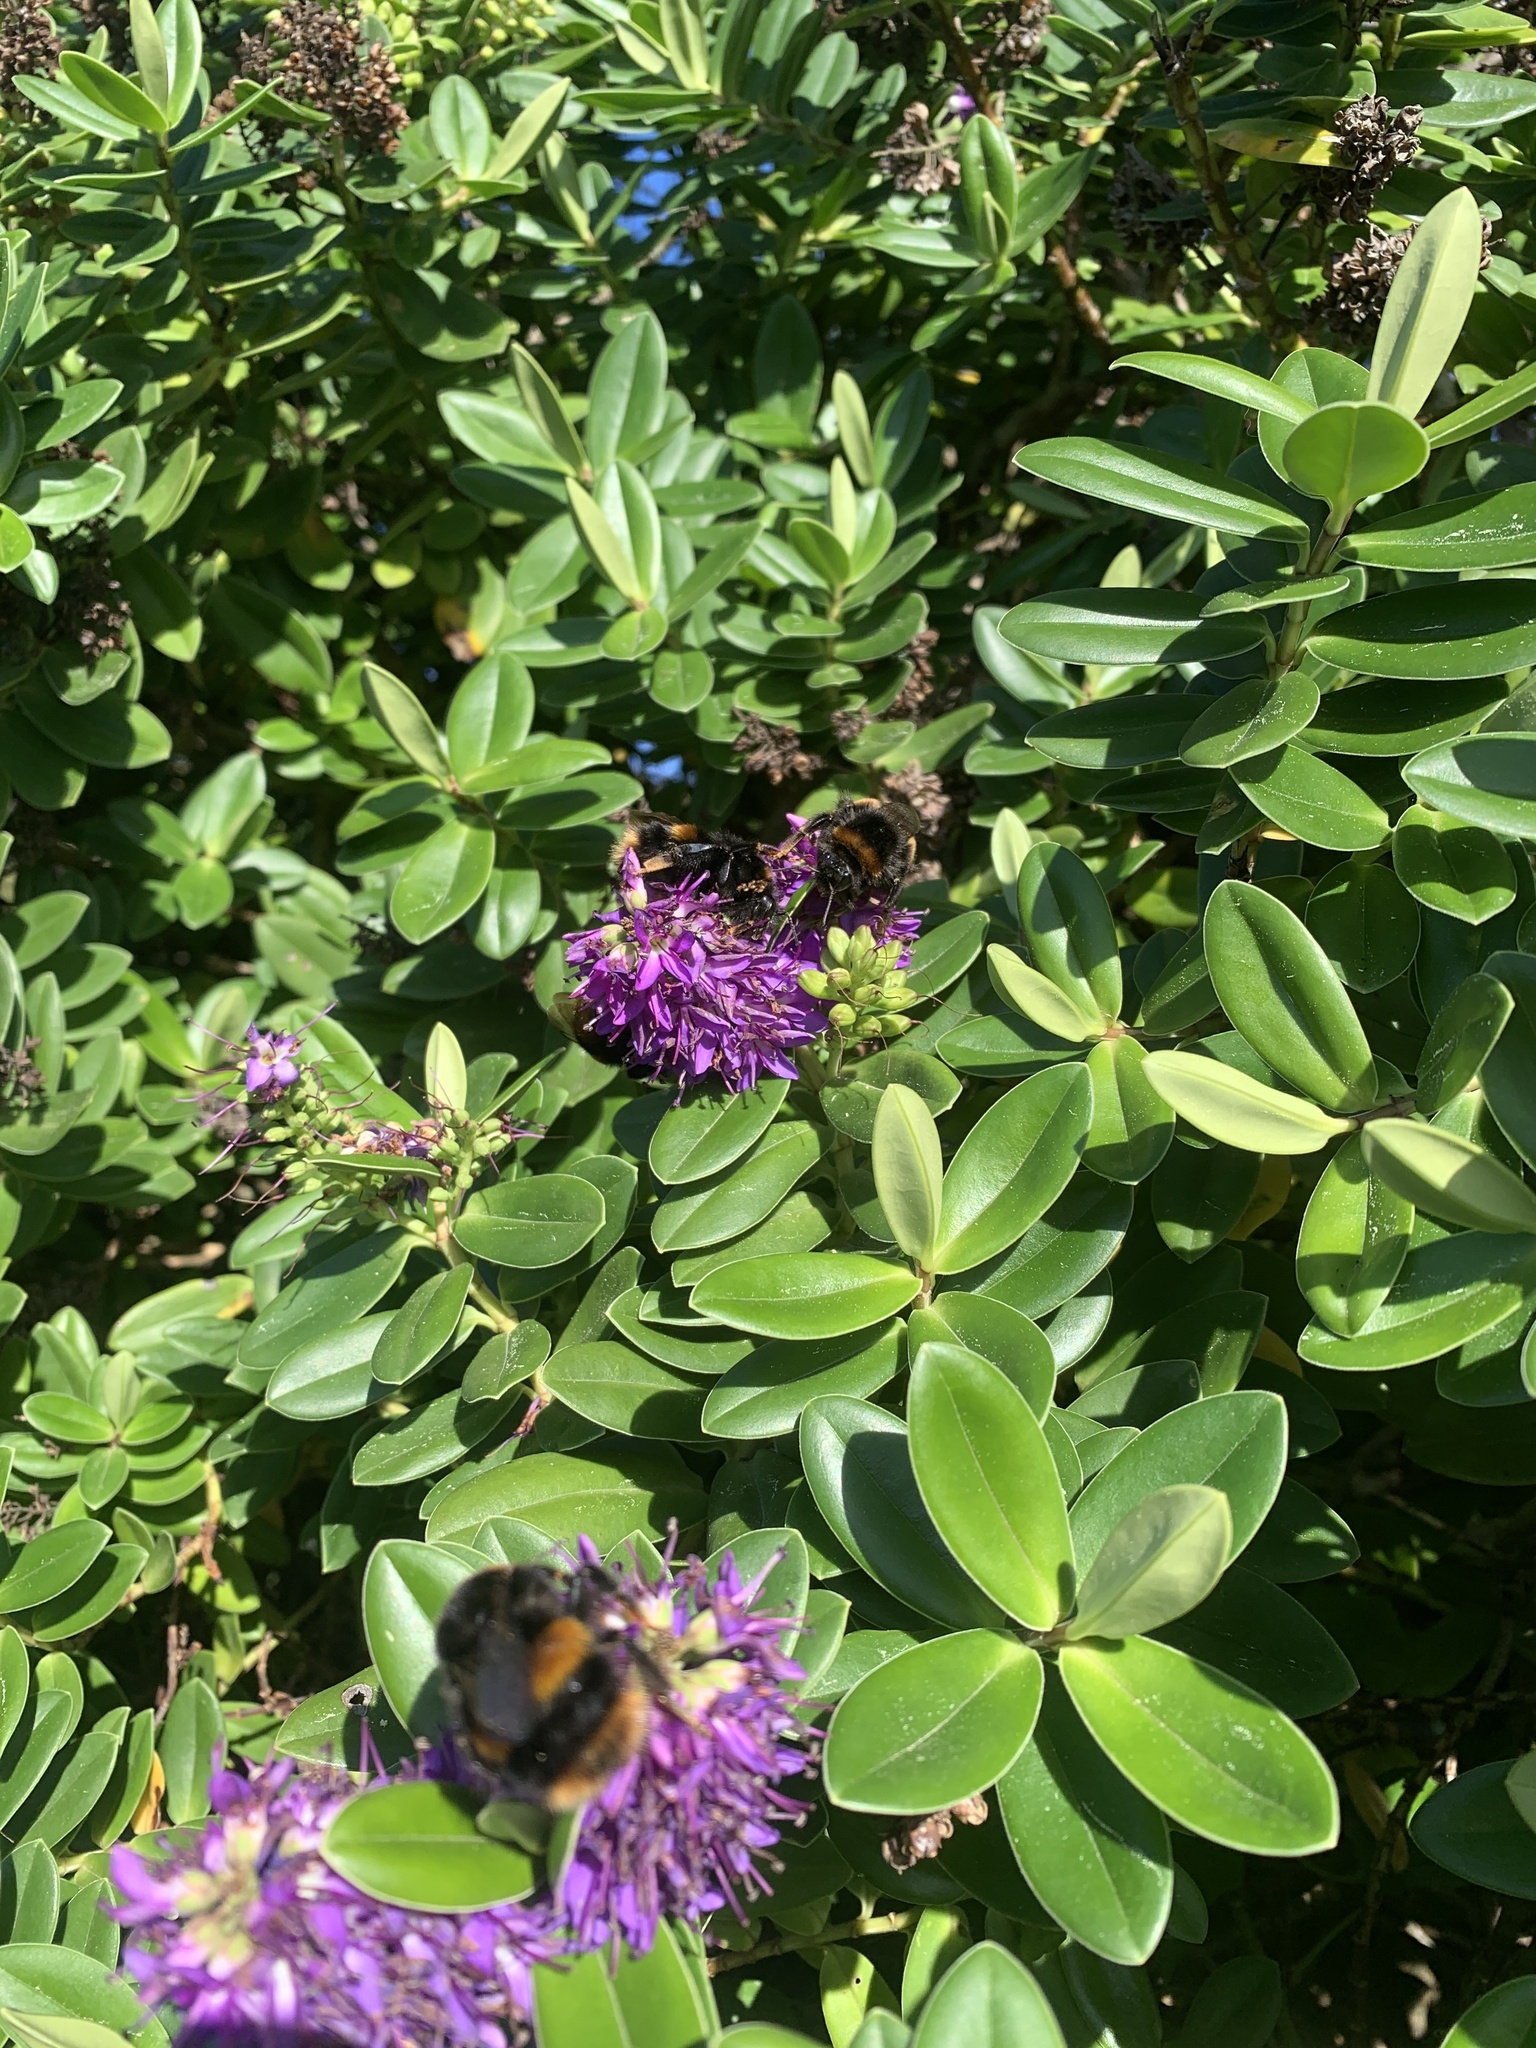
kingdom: Animalia
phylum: Arthropoda
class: Insecta
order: Hymenoptera
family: Apidae
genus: Bombus
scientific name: Bombus terrestris
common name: Buff-tailed bumblebee
